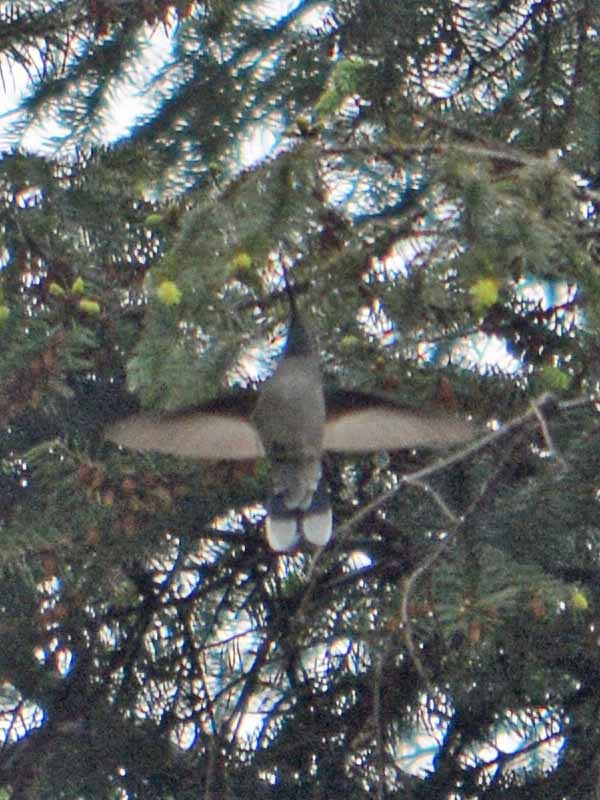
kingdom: Animalia
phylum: Chordata
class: Aves
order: Apodiformes
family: Trochilidae
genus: Lampornis
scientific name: Lampornis clemenciae
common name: Blue-throated mountaingem
